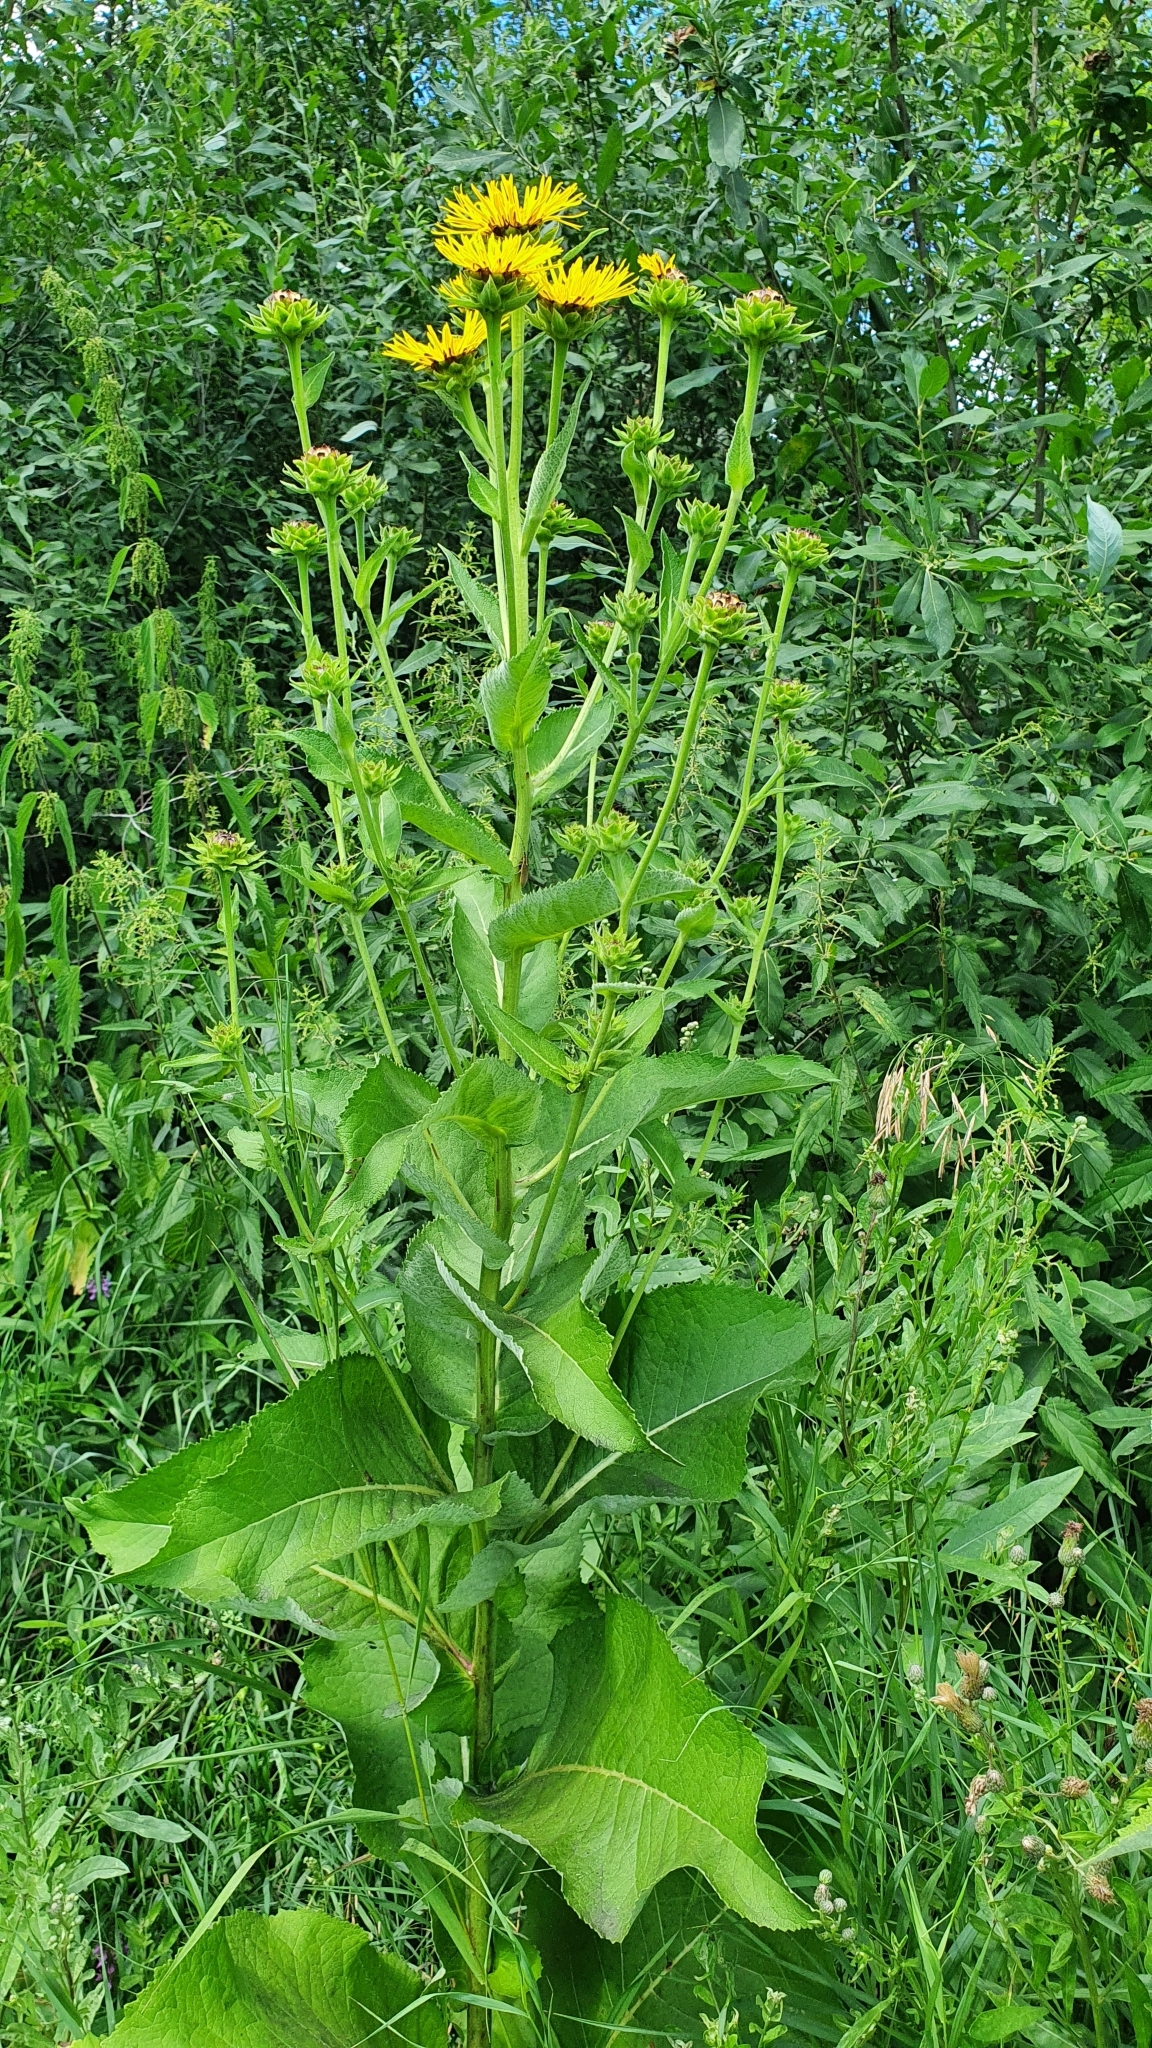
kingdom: Plantae
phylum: Tracheophyta
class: Magnoliopsida
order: Asterales
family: Asteraceae
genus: Inula
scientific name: Inula helenium
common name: Elecampane
